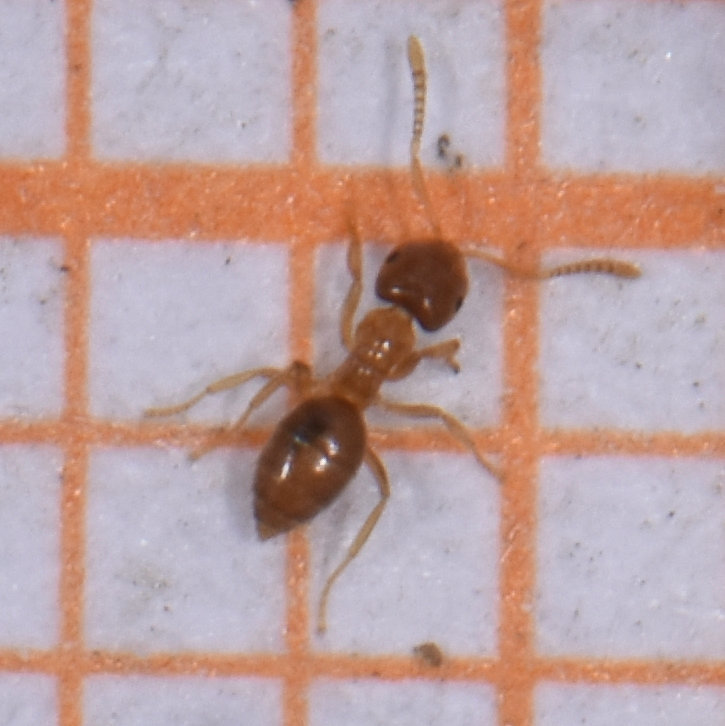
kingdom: Animalia
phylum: Arthropoda
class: Insecta
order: Hymenoptera
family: Formicidae
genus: Brachymyrmex
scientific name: Brachymyrmex depilis
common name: Hairless rover ant
